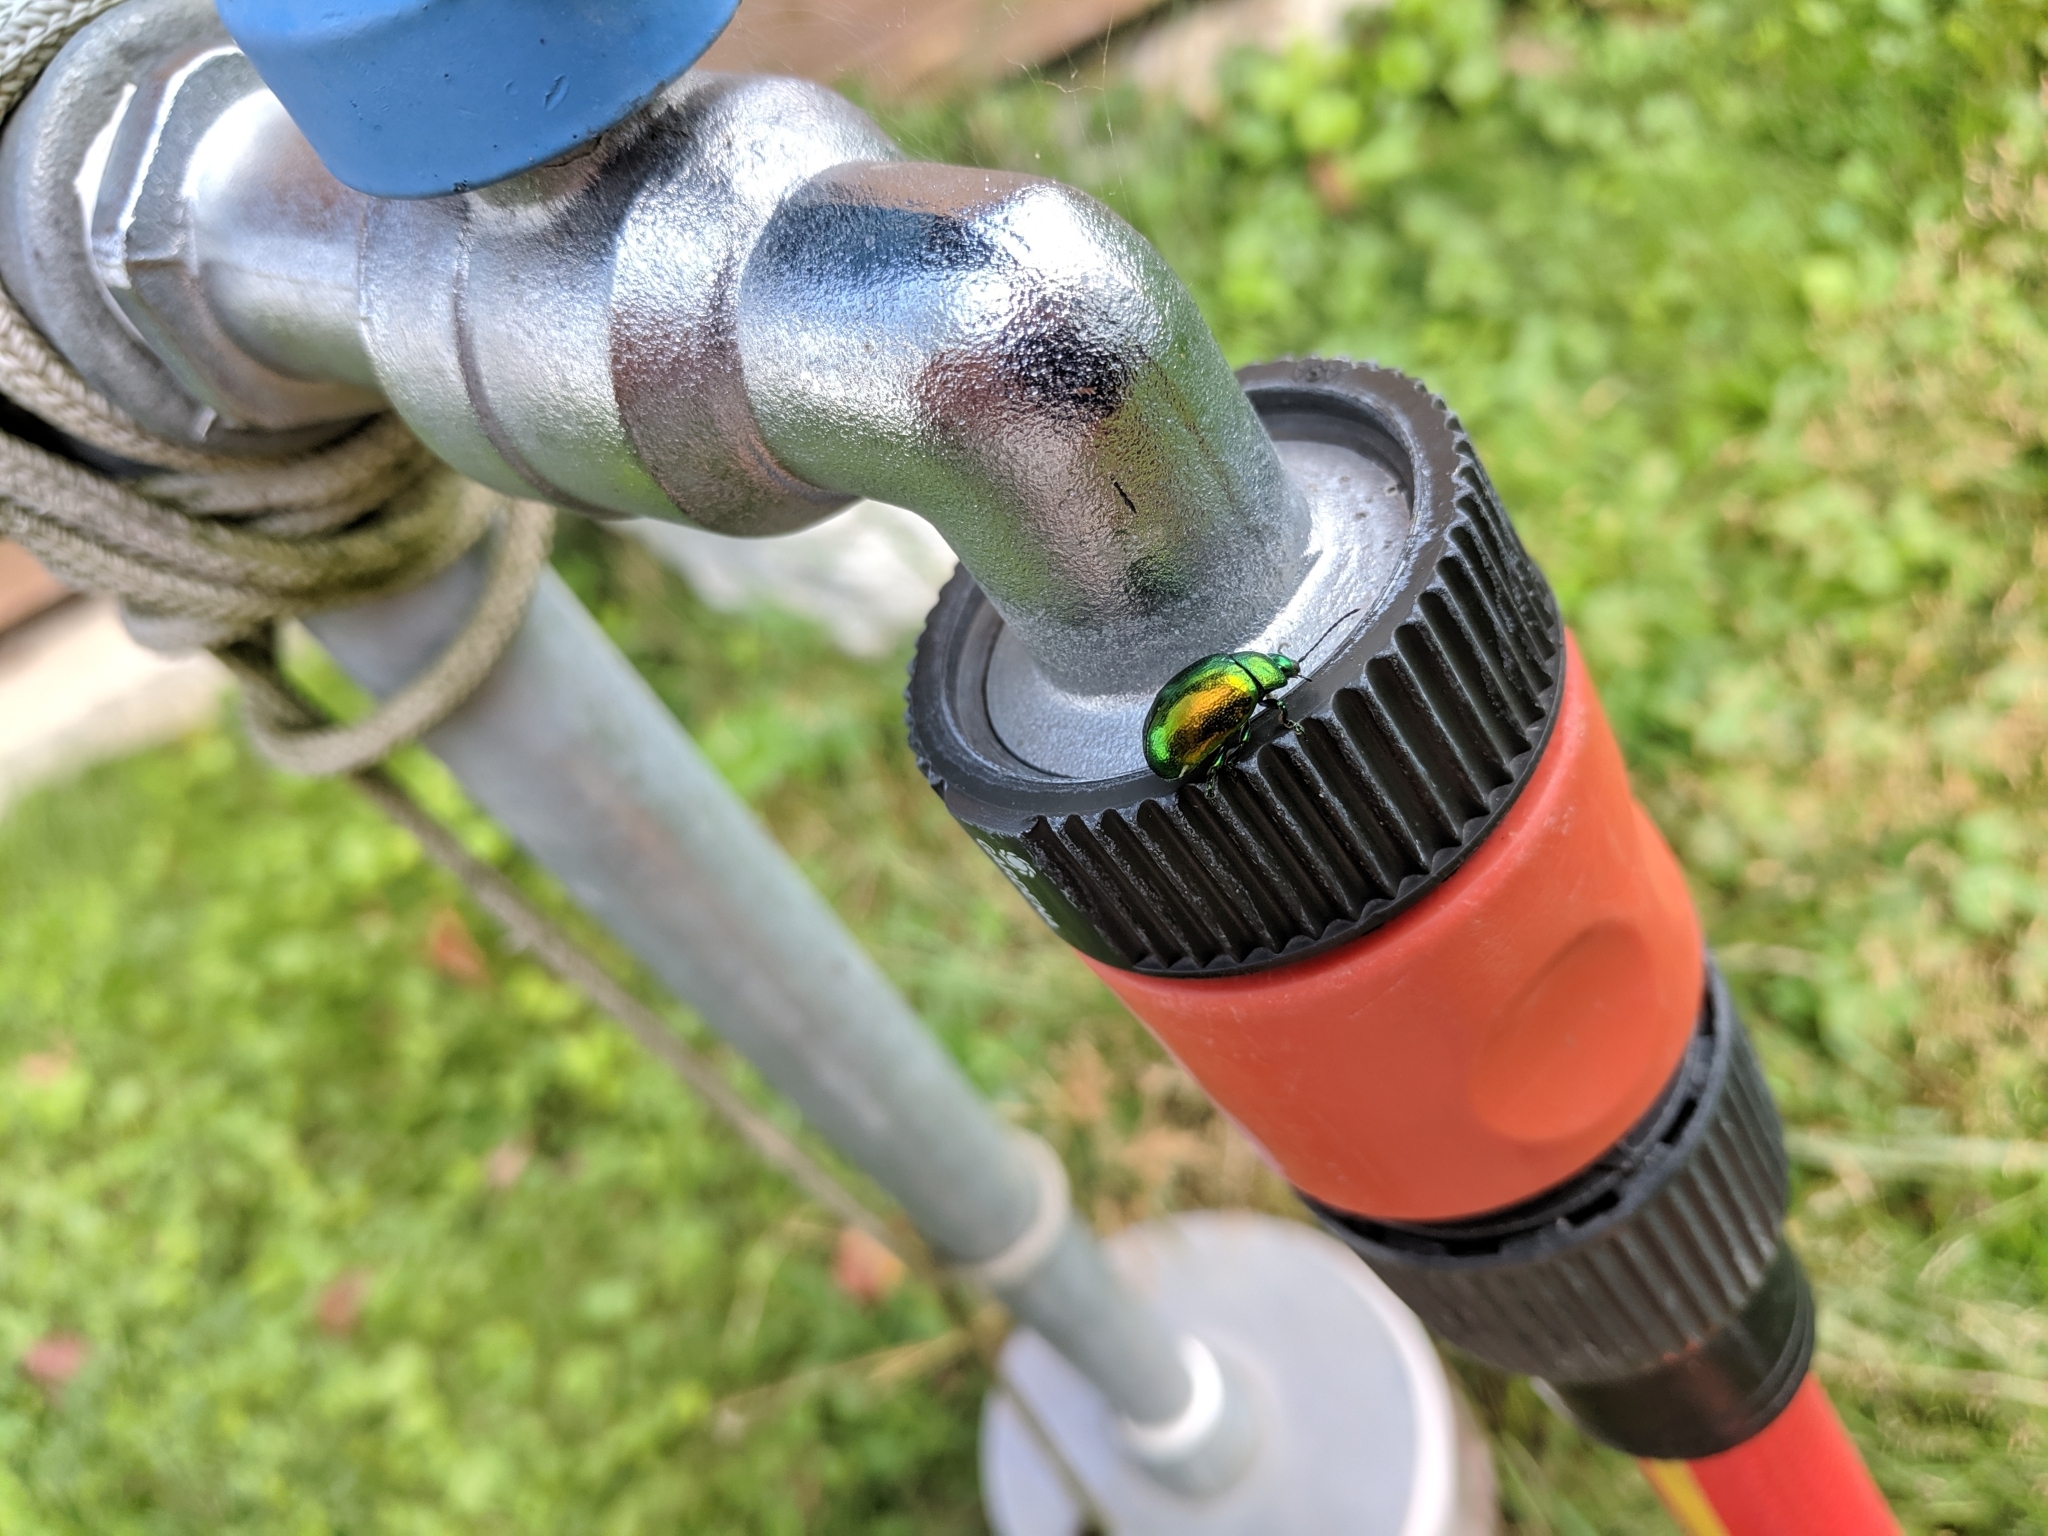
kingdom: Animalia
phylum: Arthropoda
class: Insecta
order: Coleoptera
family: Chrysomelidae
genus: Chrysolina
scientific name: Chrysolina herbacea
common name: Mint leaf beatle
